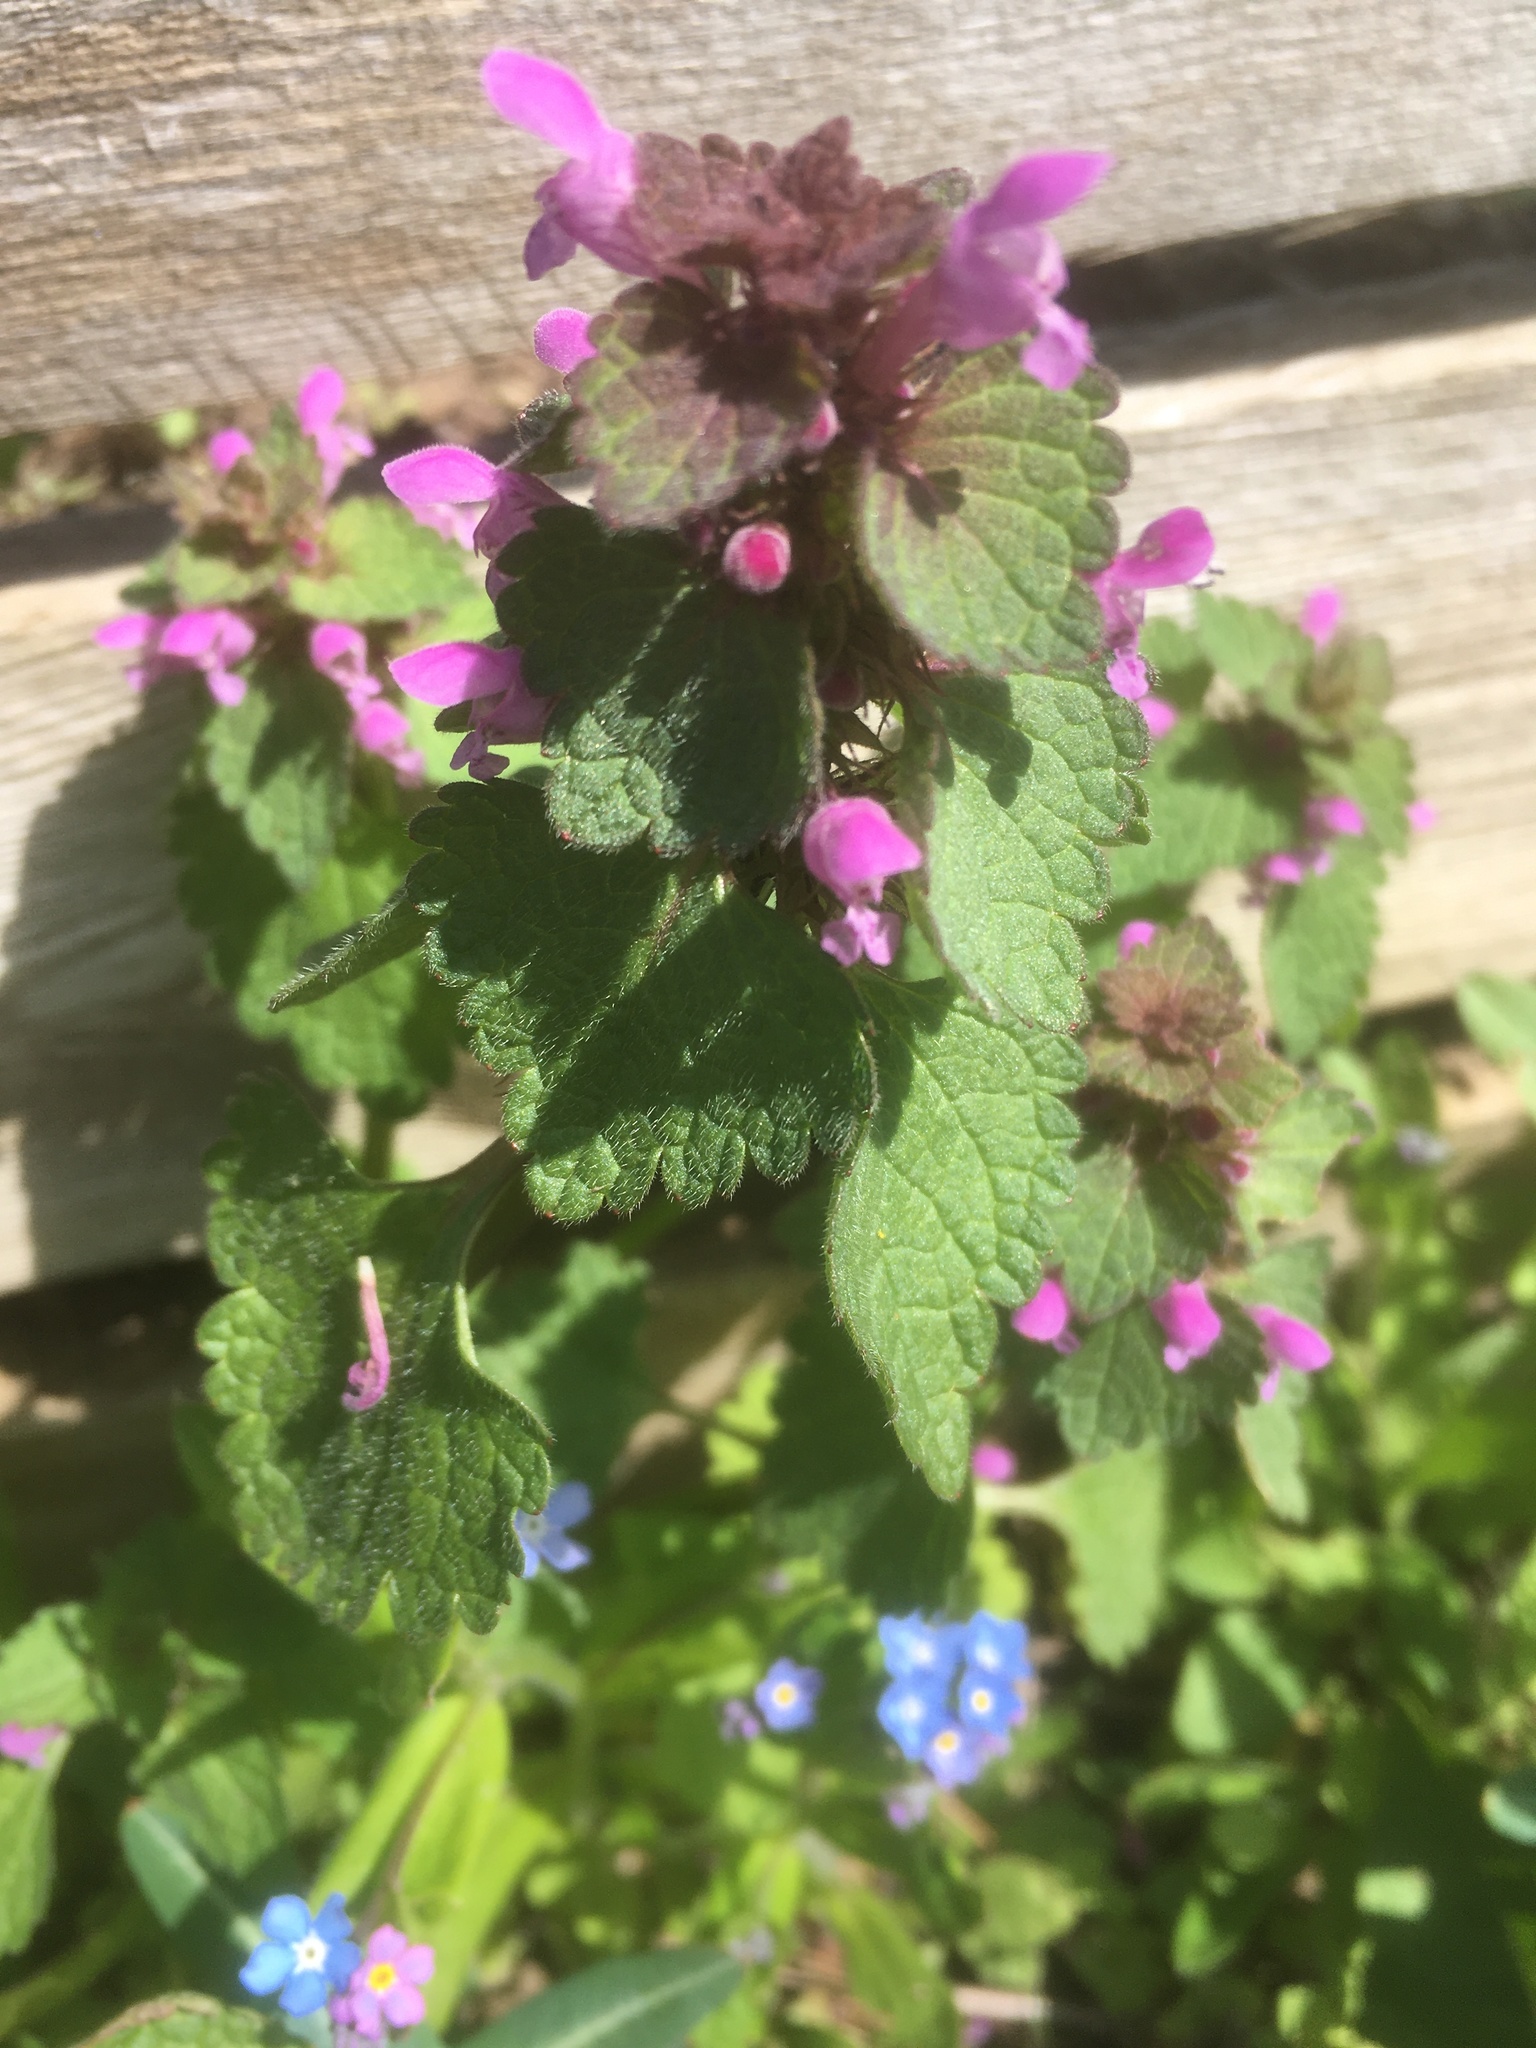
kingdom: Plantae
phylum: Tracheophyta
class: Magnoliopsida
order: Lamiales
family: Lamiaceae
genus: Lamium
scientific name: Lamium purpureum
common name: Red dead-nettle
